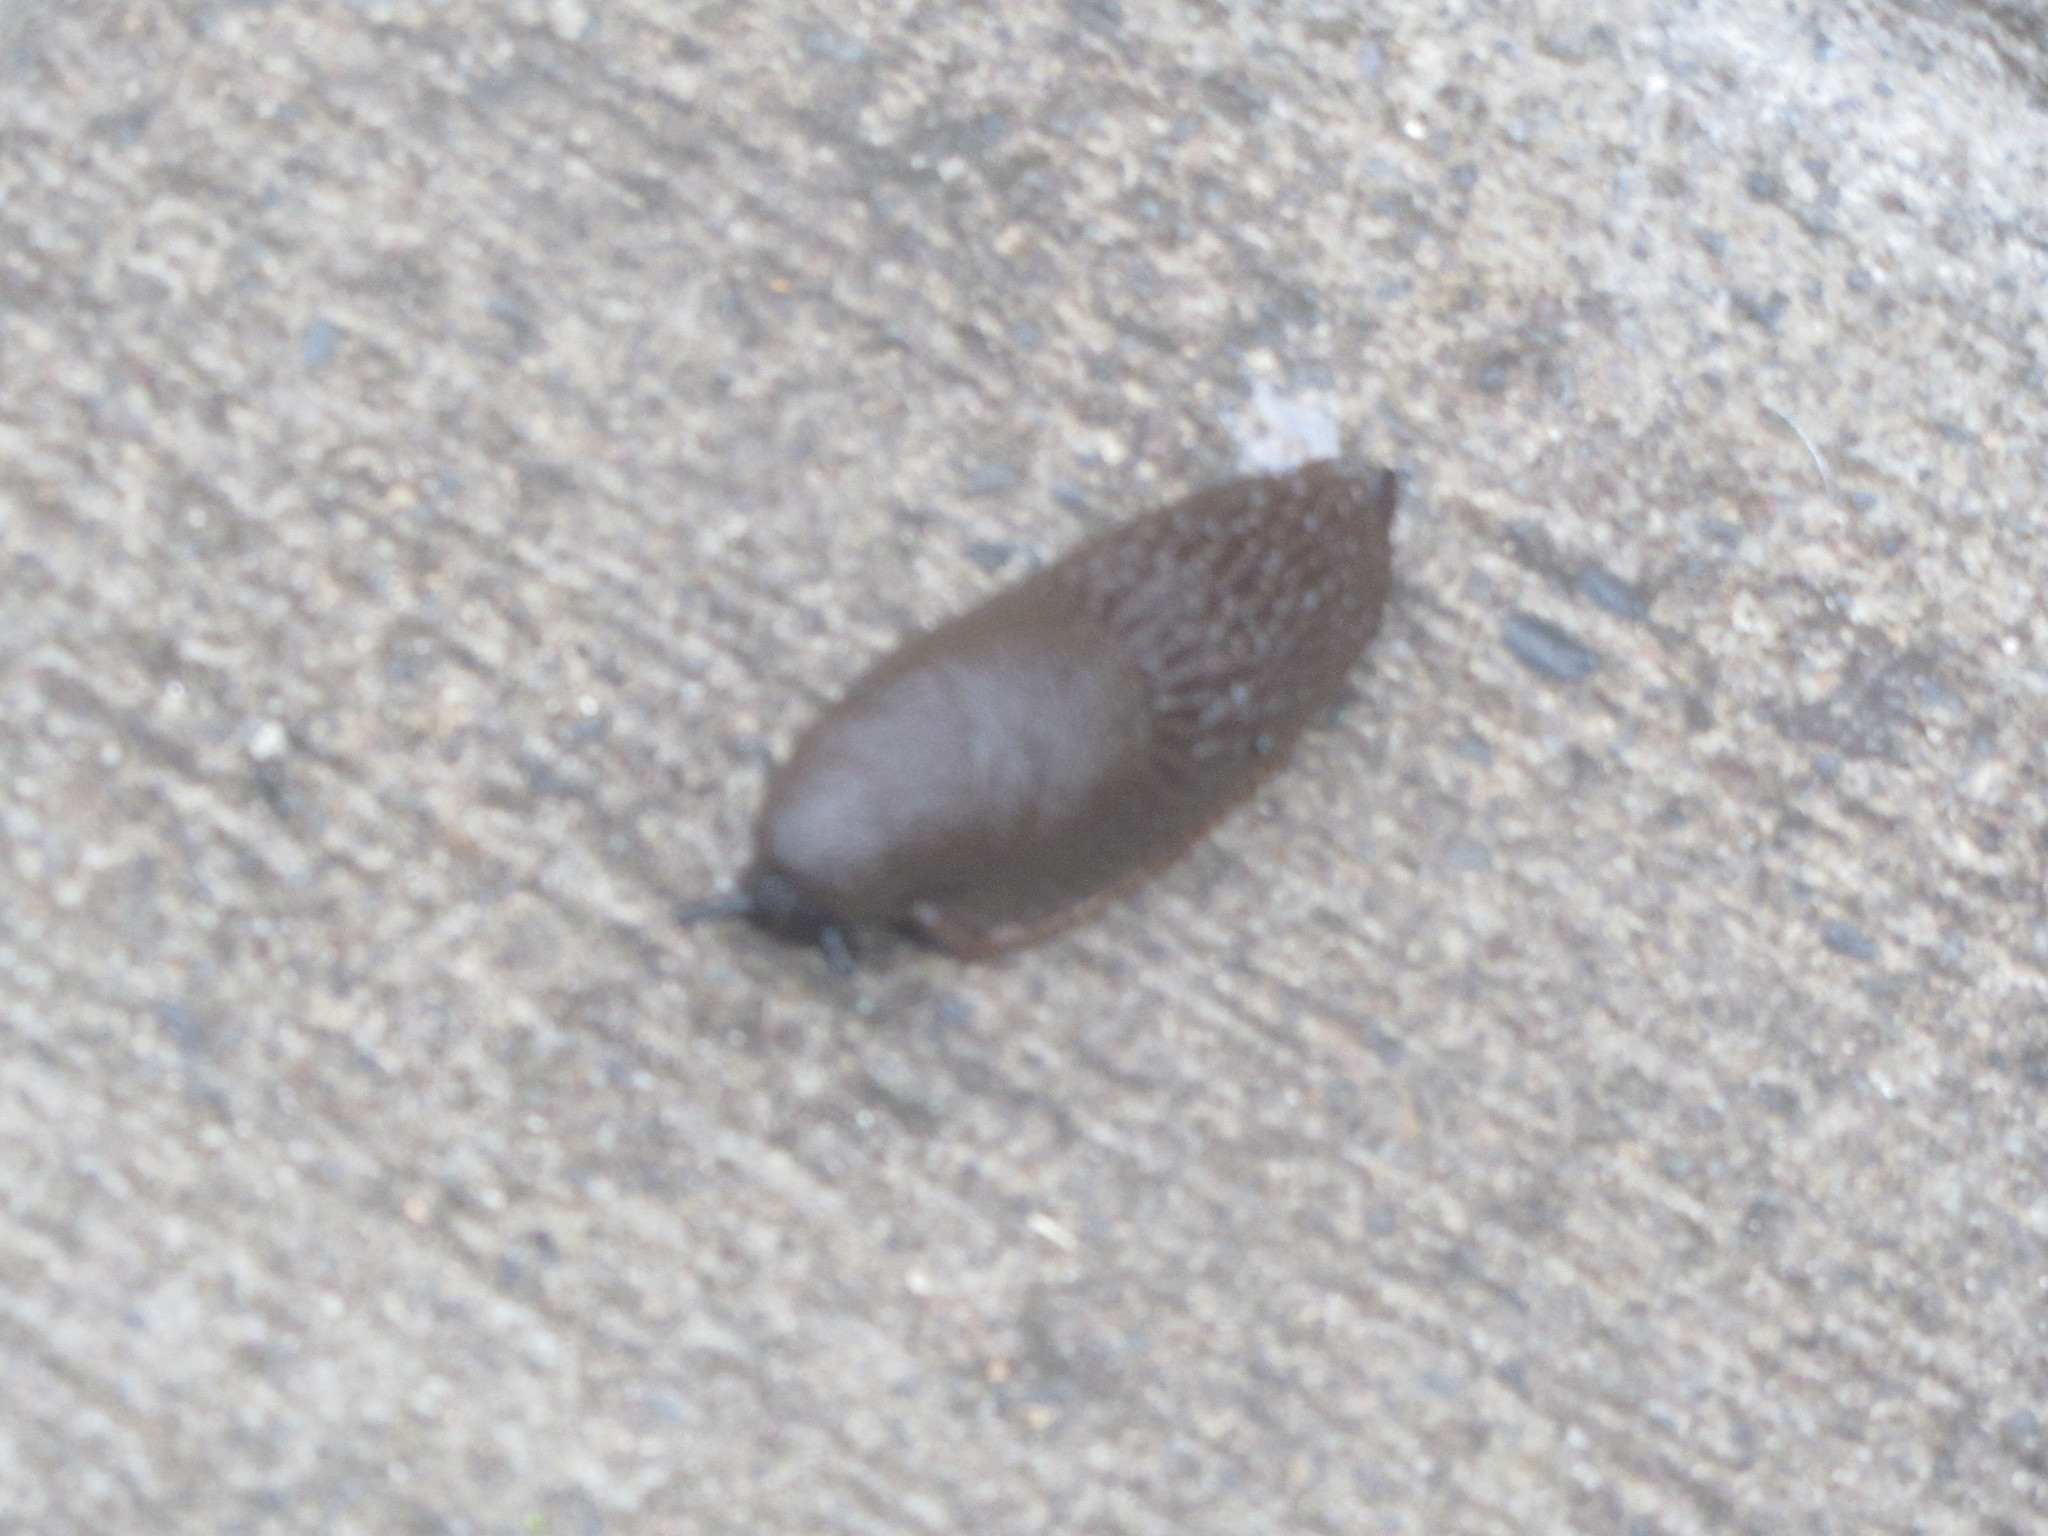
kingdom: Animalia
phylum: Mollusca
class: Gastropoda
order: Stylommatophora
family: Arionidae
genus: Arion
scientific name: Arion
